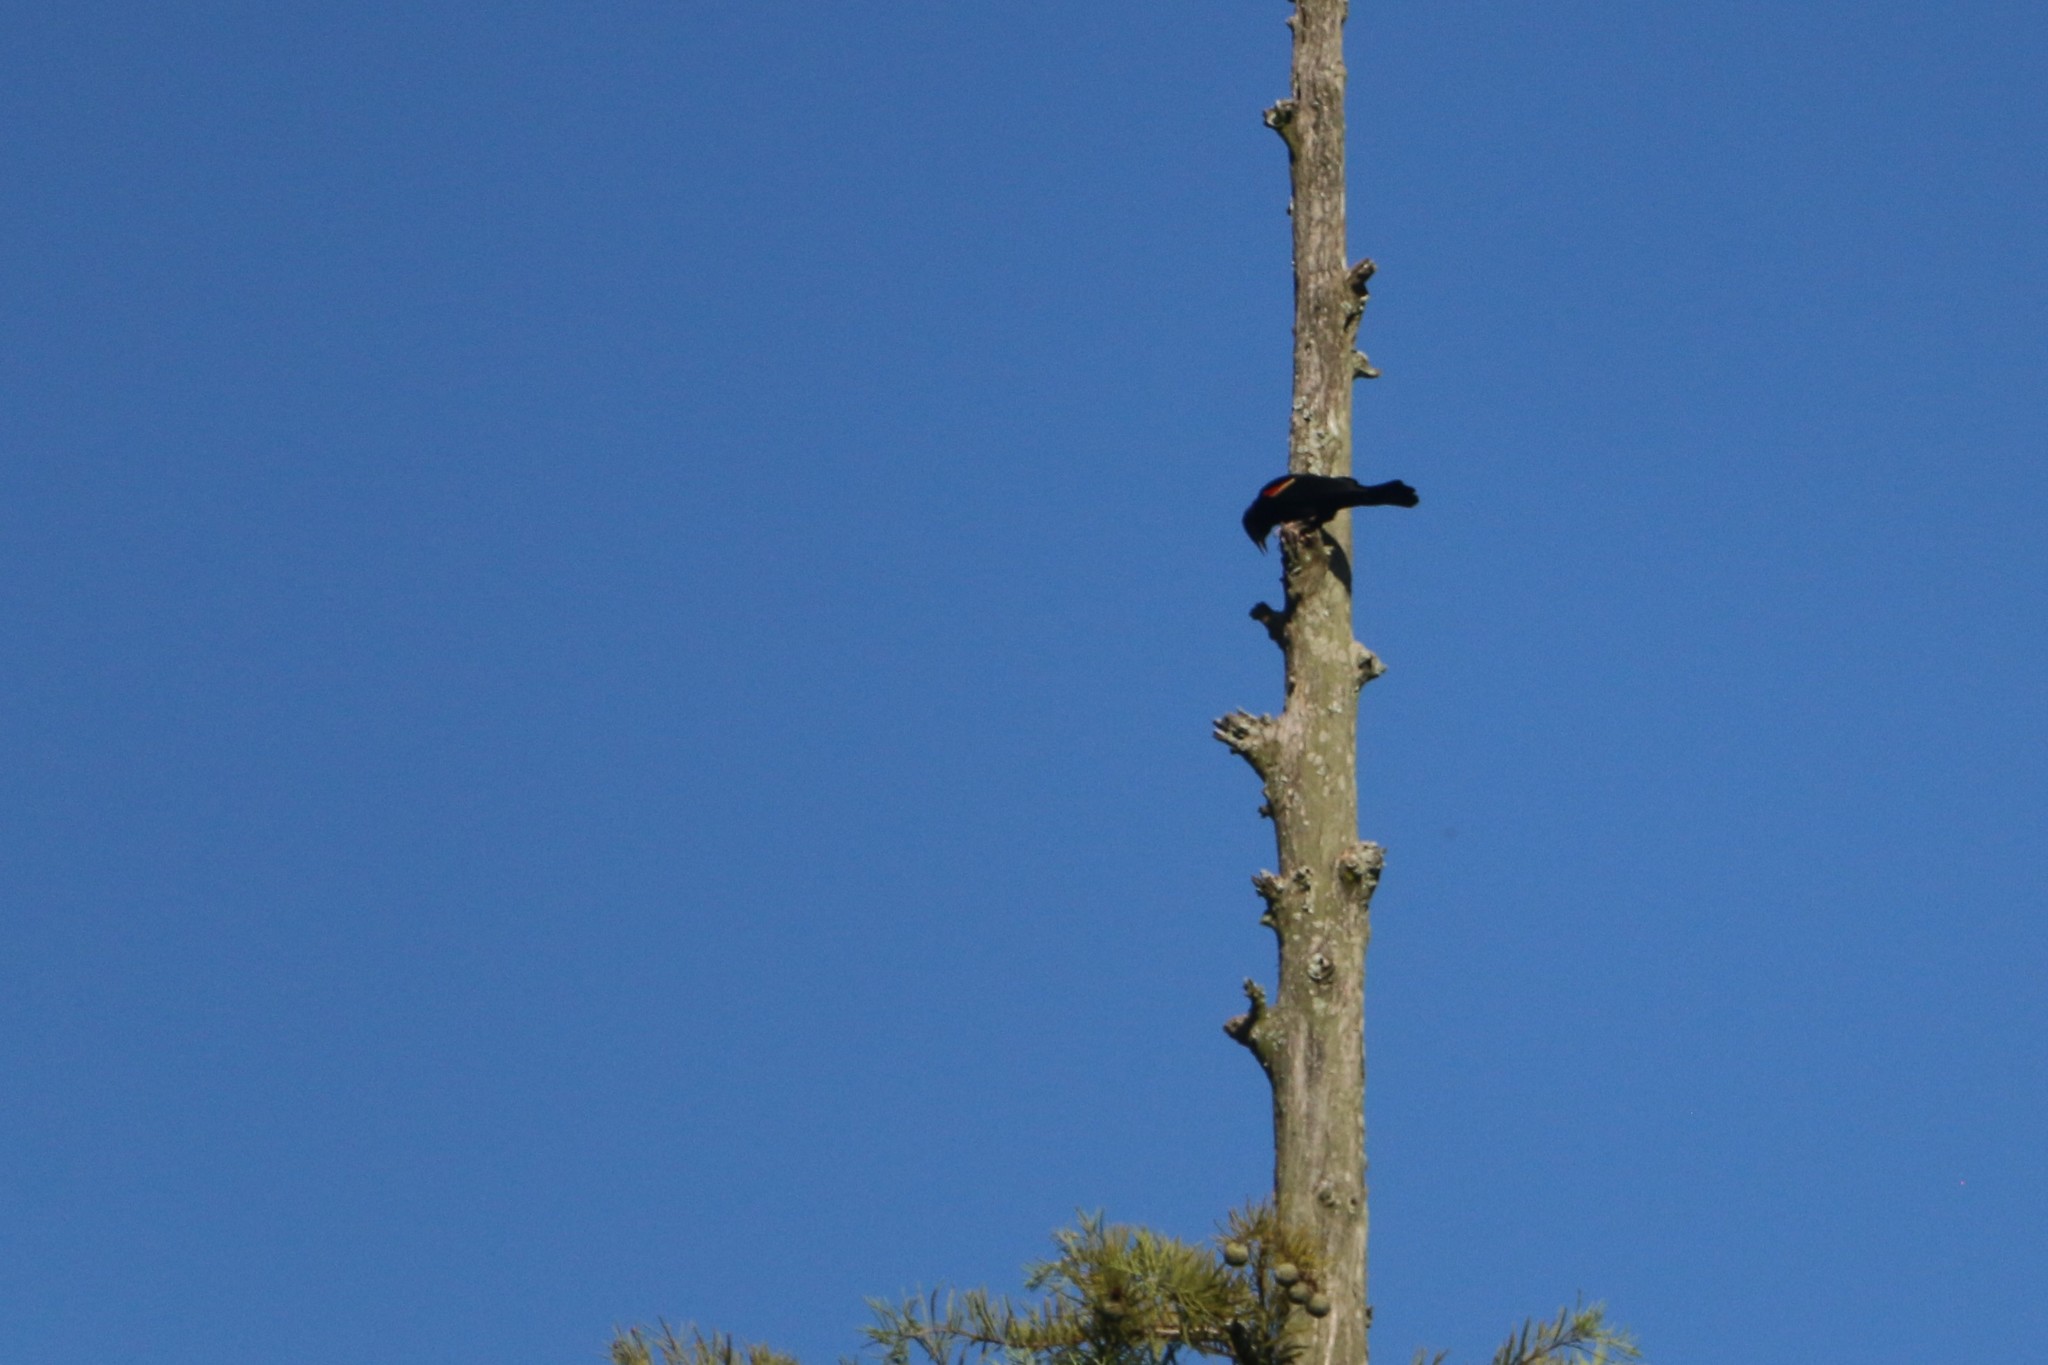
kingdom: Animalia
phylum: Chordata
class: Aves
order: Passeriformes
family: Icteridae
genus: Agelaius
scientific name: Agelaius phoeniceus
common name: Red-winged blackbird
